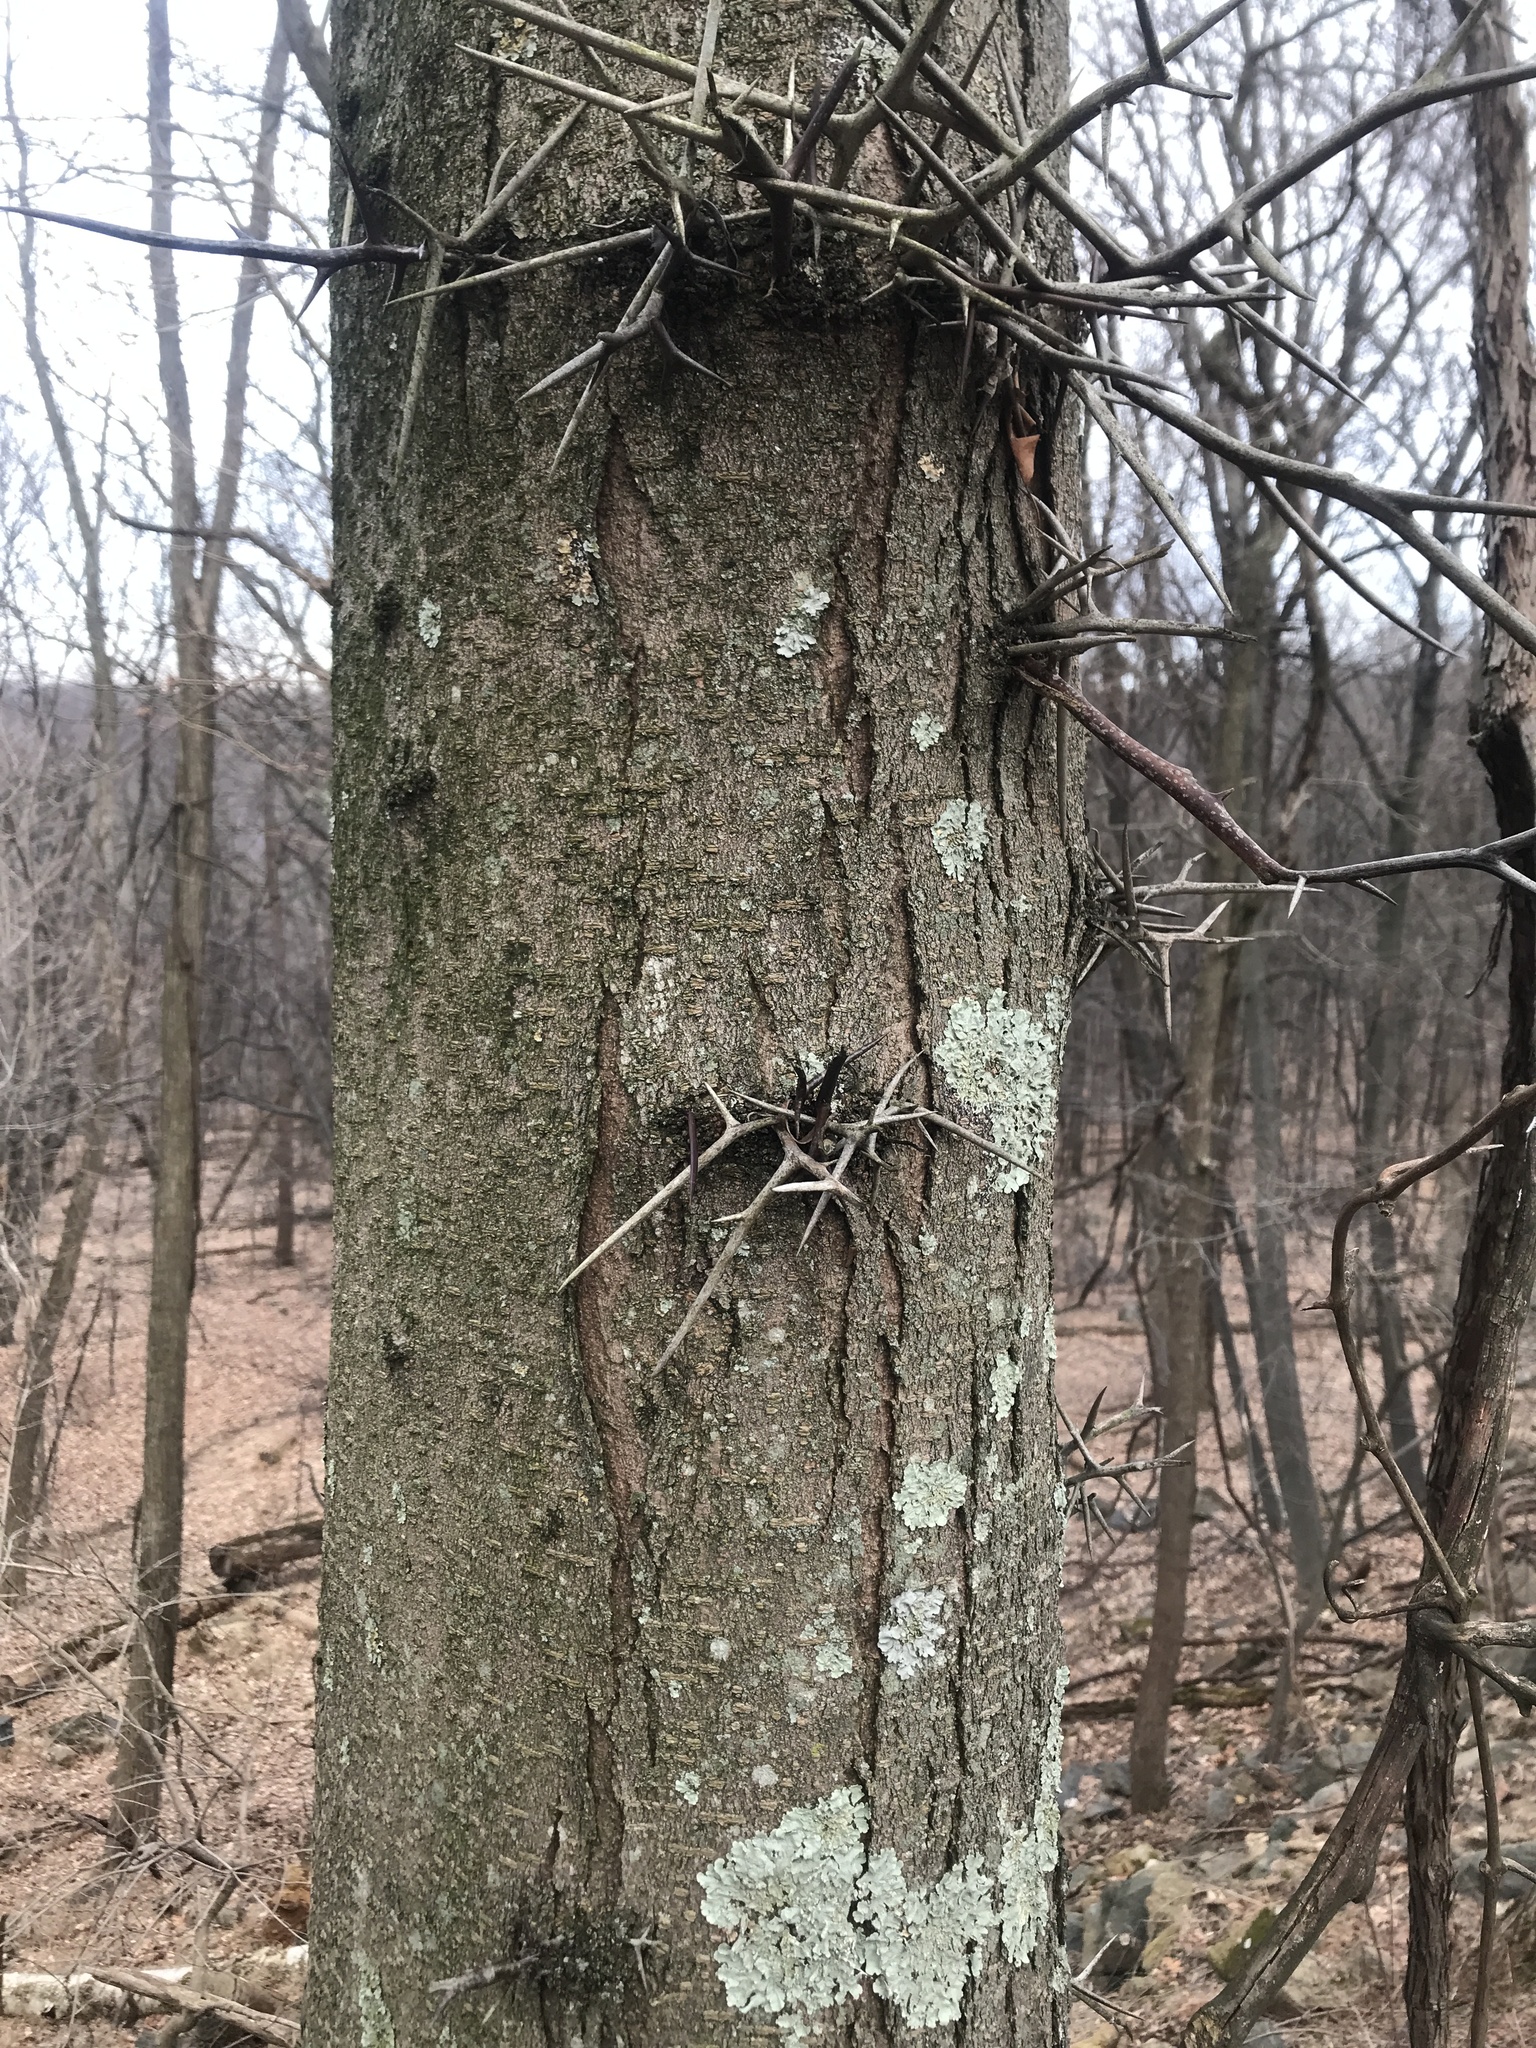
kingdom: Plantae
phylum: Tracheophyta
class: Magnoliopsida
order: Fabales
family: Fabaceae
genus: Gleditsia
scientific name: Gleditsia triacanthos
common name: Common honeylocust
